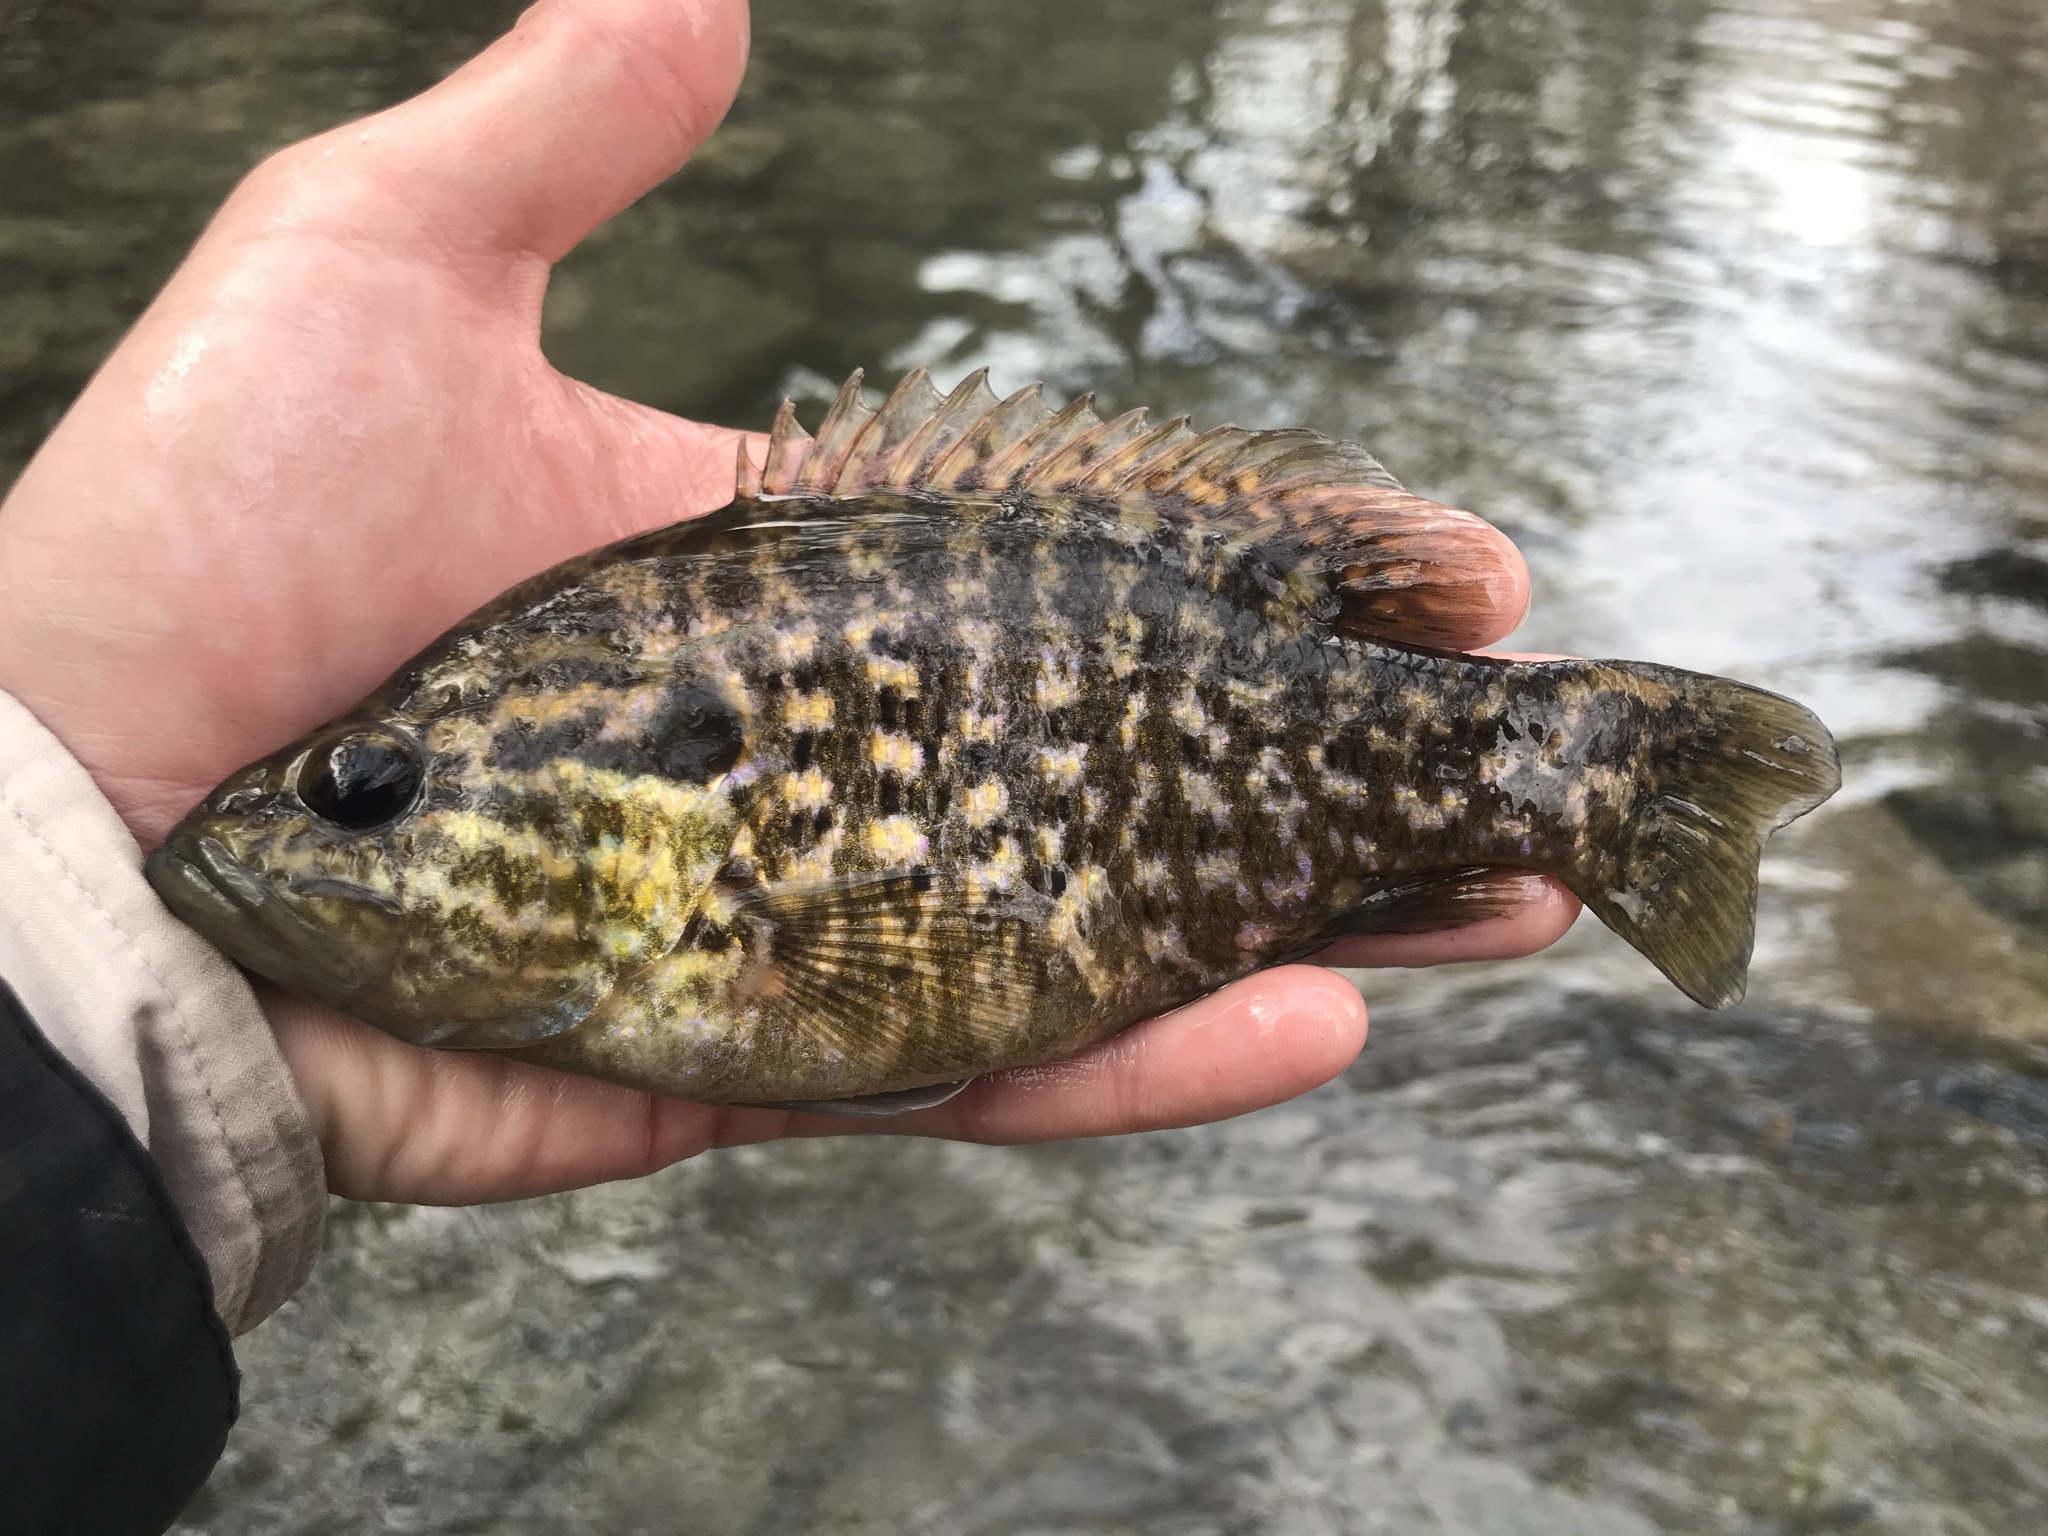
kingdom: Animalia
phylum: Chordata
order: Perciformes
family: Centrarchidae
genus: Lepomis
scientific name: Lepomis gulosus
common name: Warmouth
